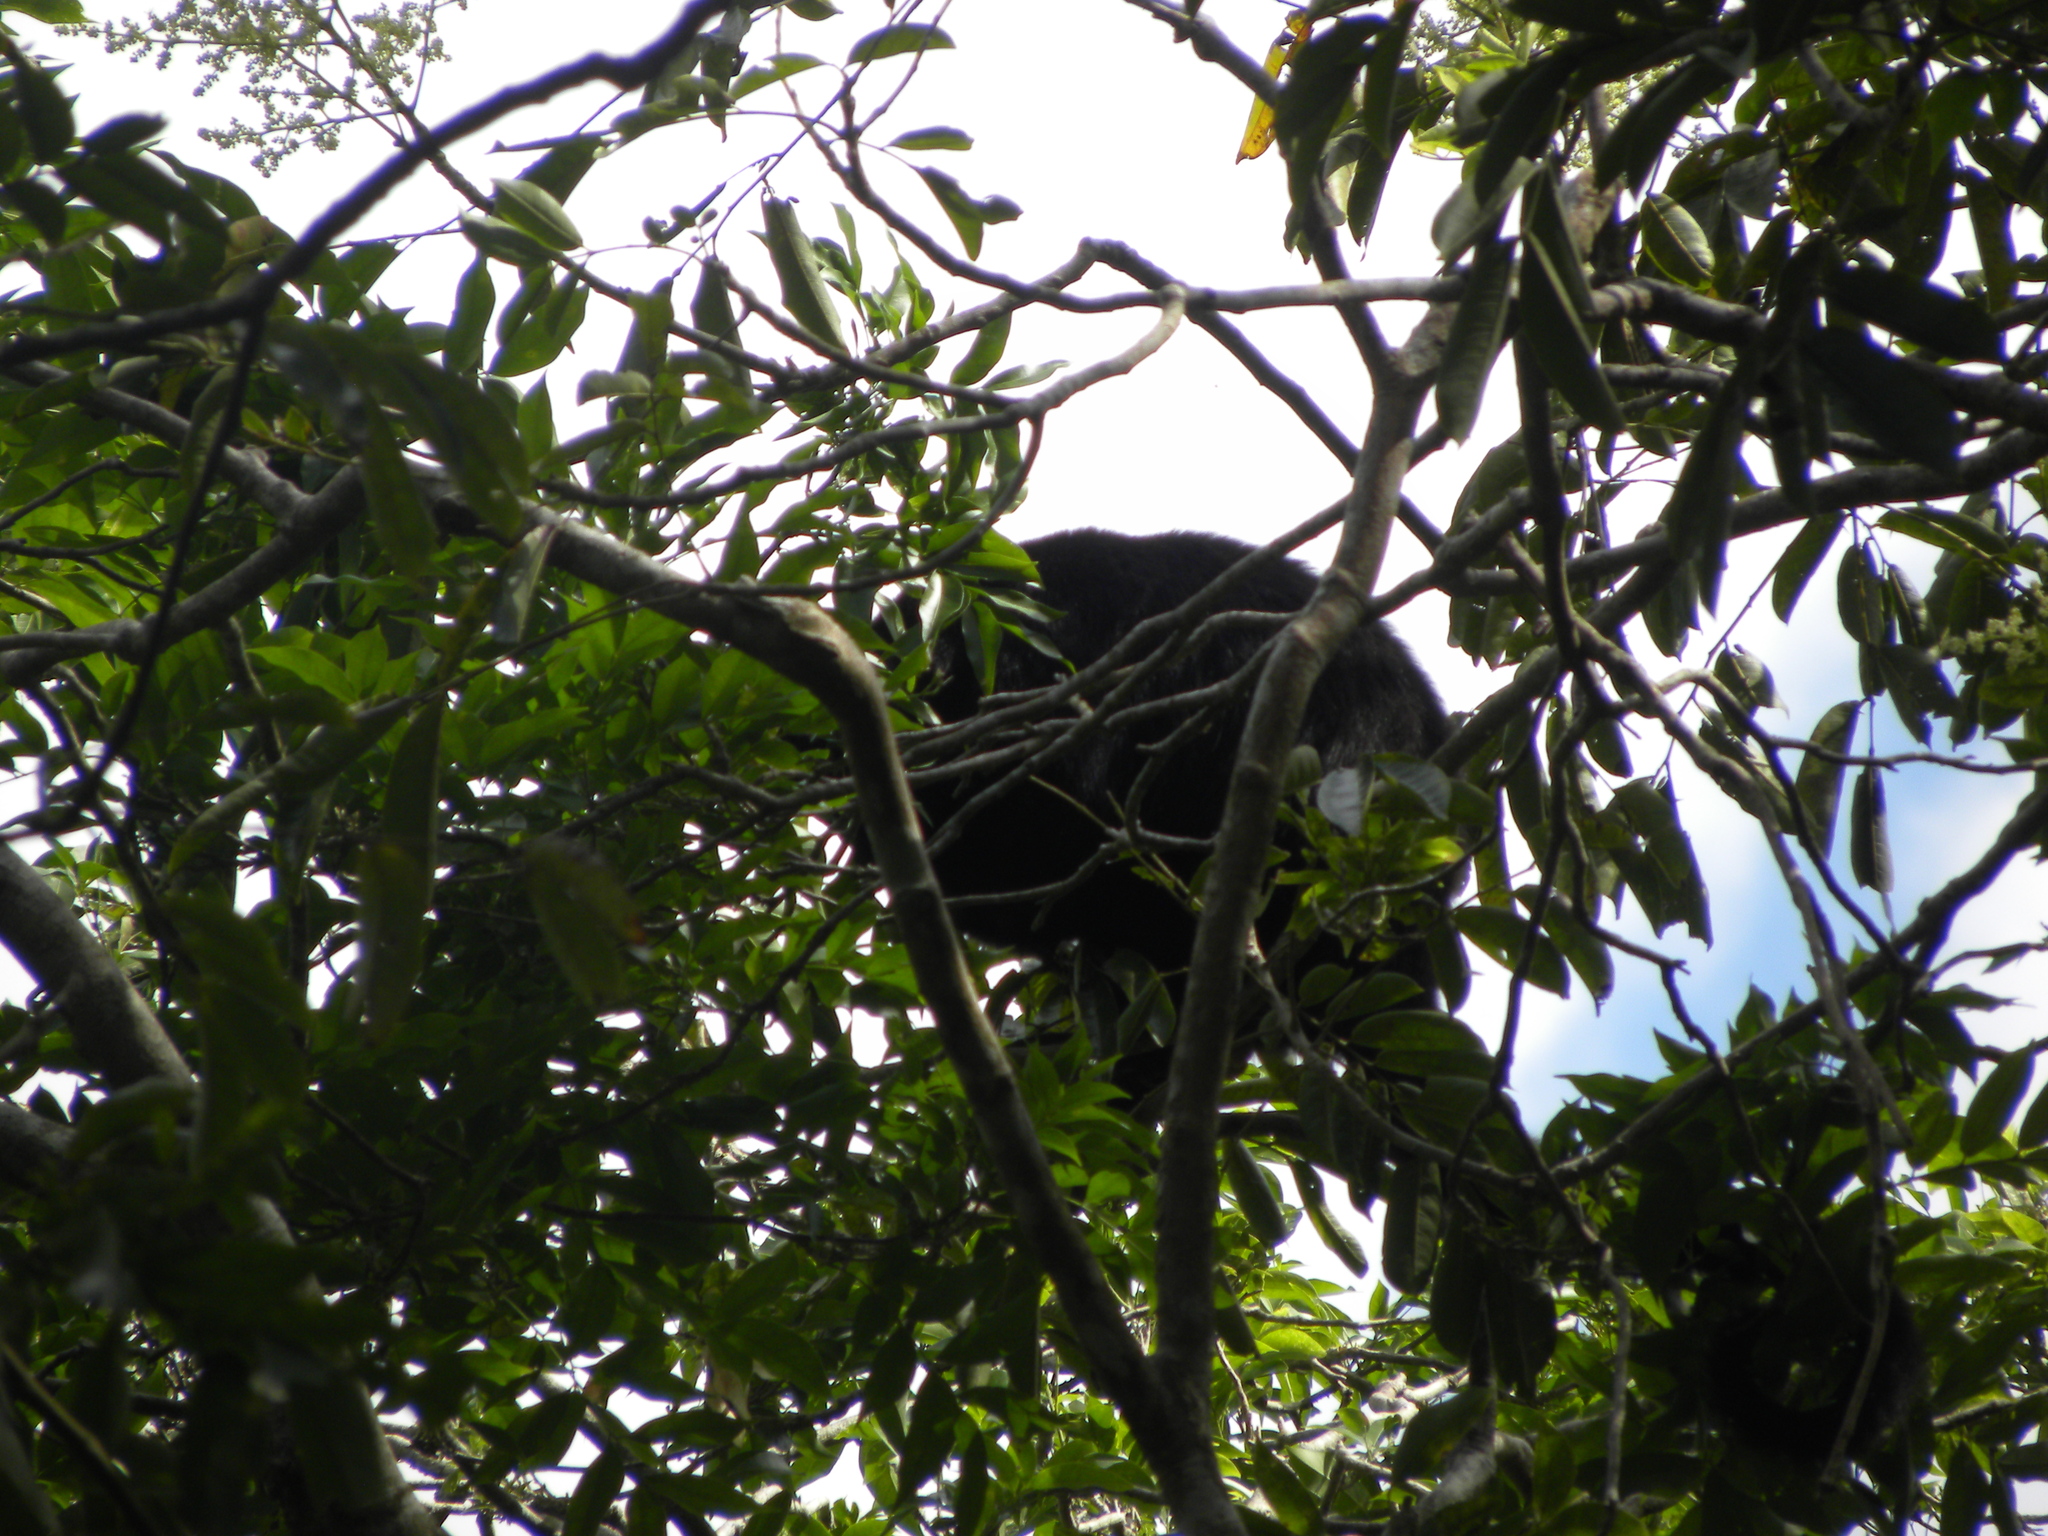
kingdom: Animalia
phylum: Chordata
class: Mammalia
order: Primates
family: Atelidae
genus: Alouatta
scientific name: Alouatta pigra
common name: Guatemalan black howler
